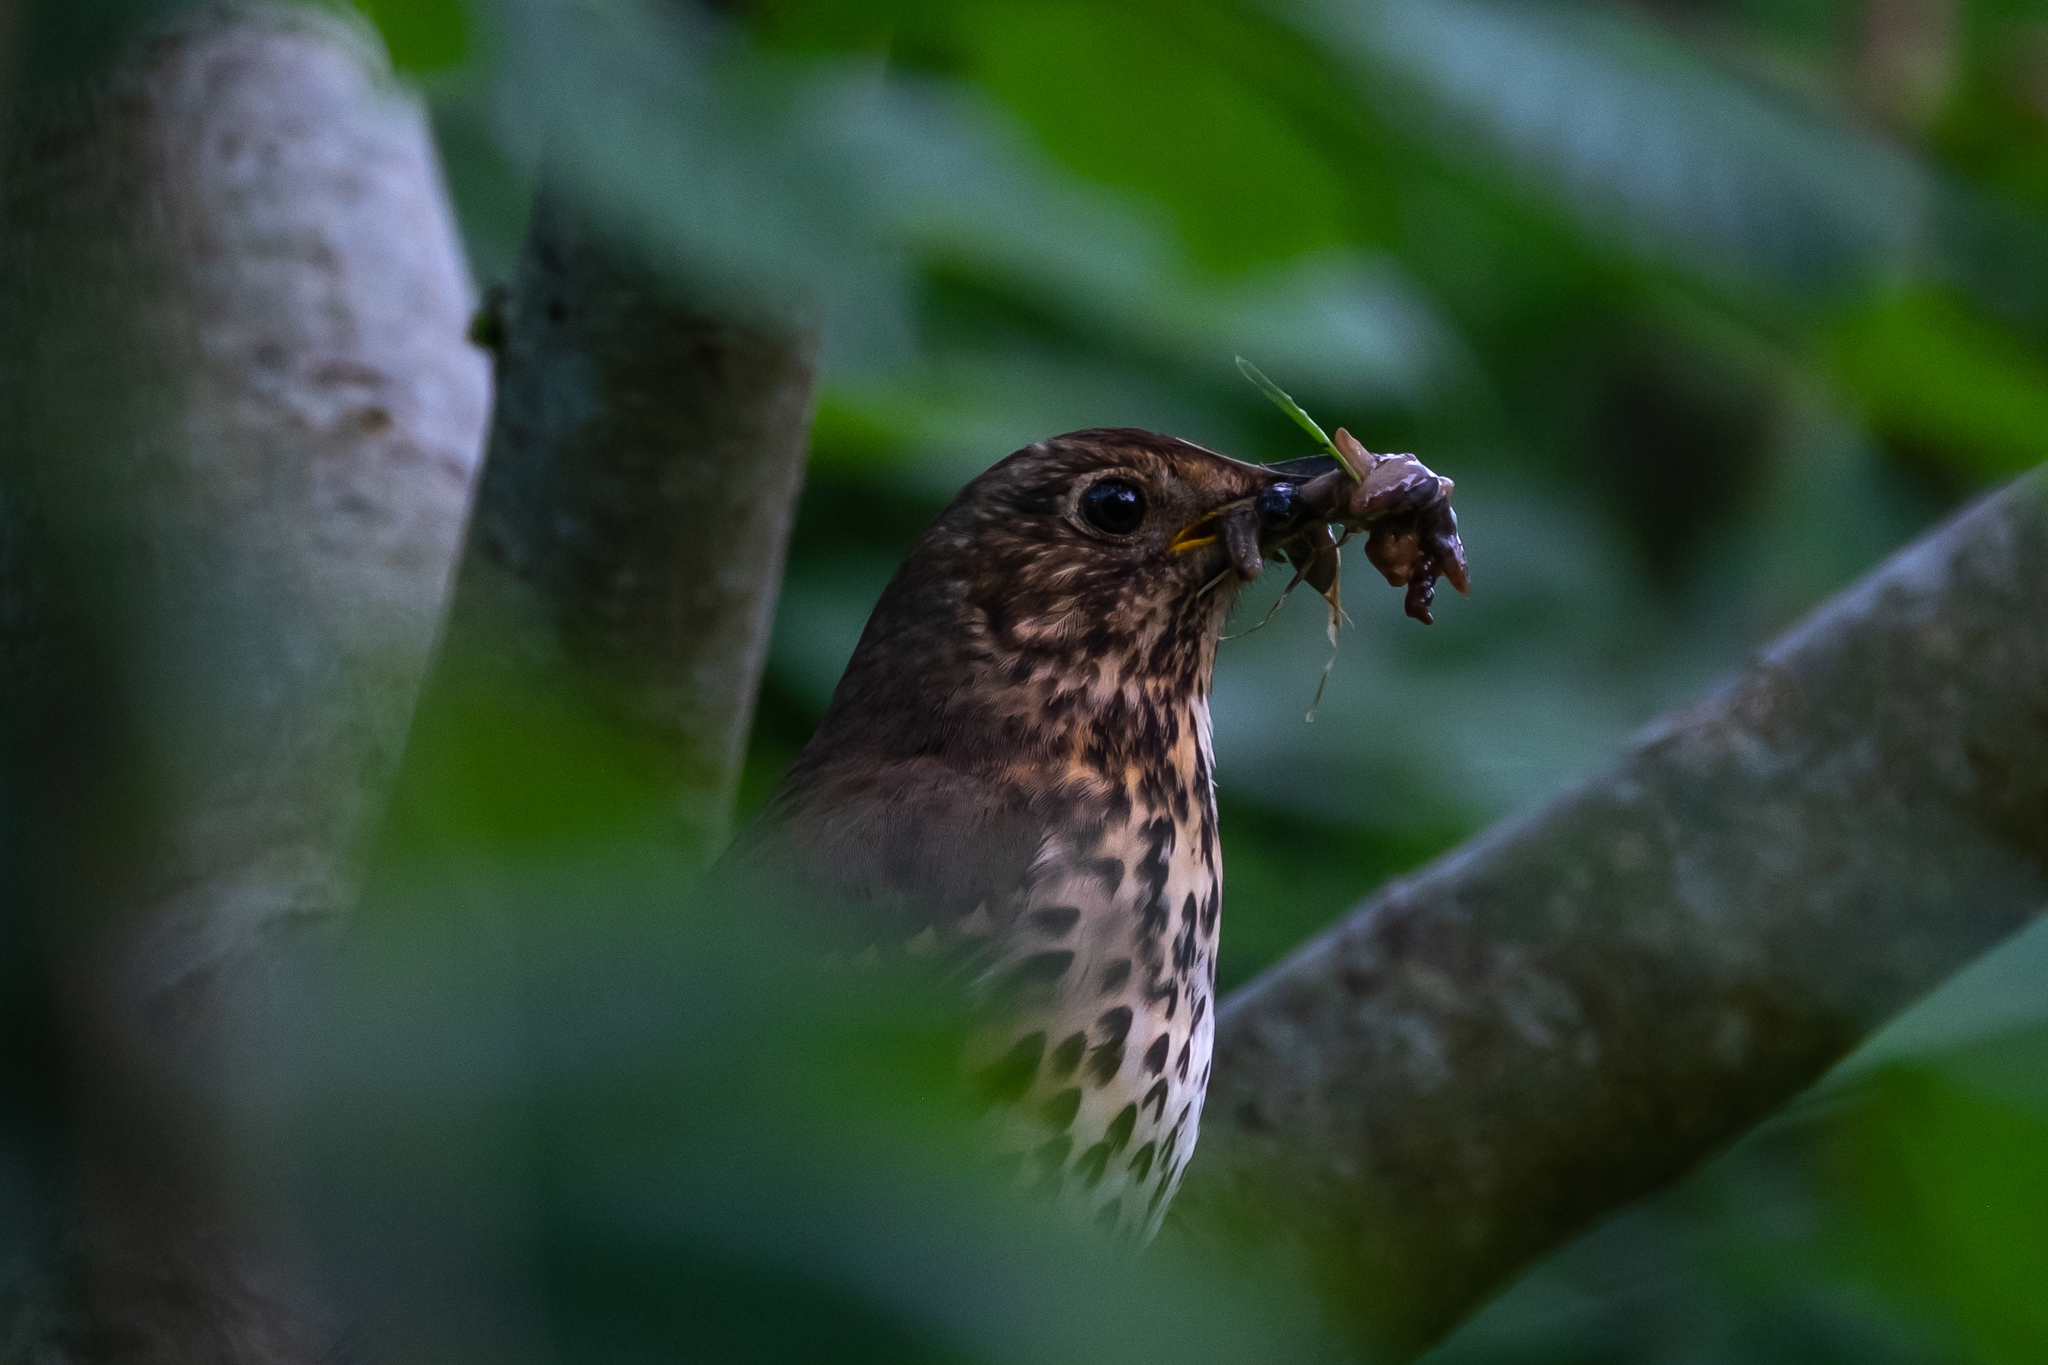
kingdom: Animalia
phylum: Chordata
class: Aves
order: Passeriformes
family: Turdidae
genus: Turdus
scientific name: Turdus philomelos
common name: Song thrush
